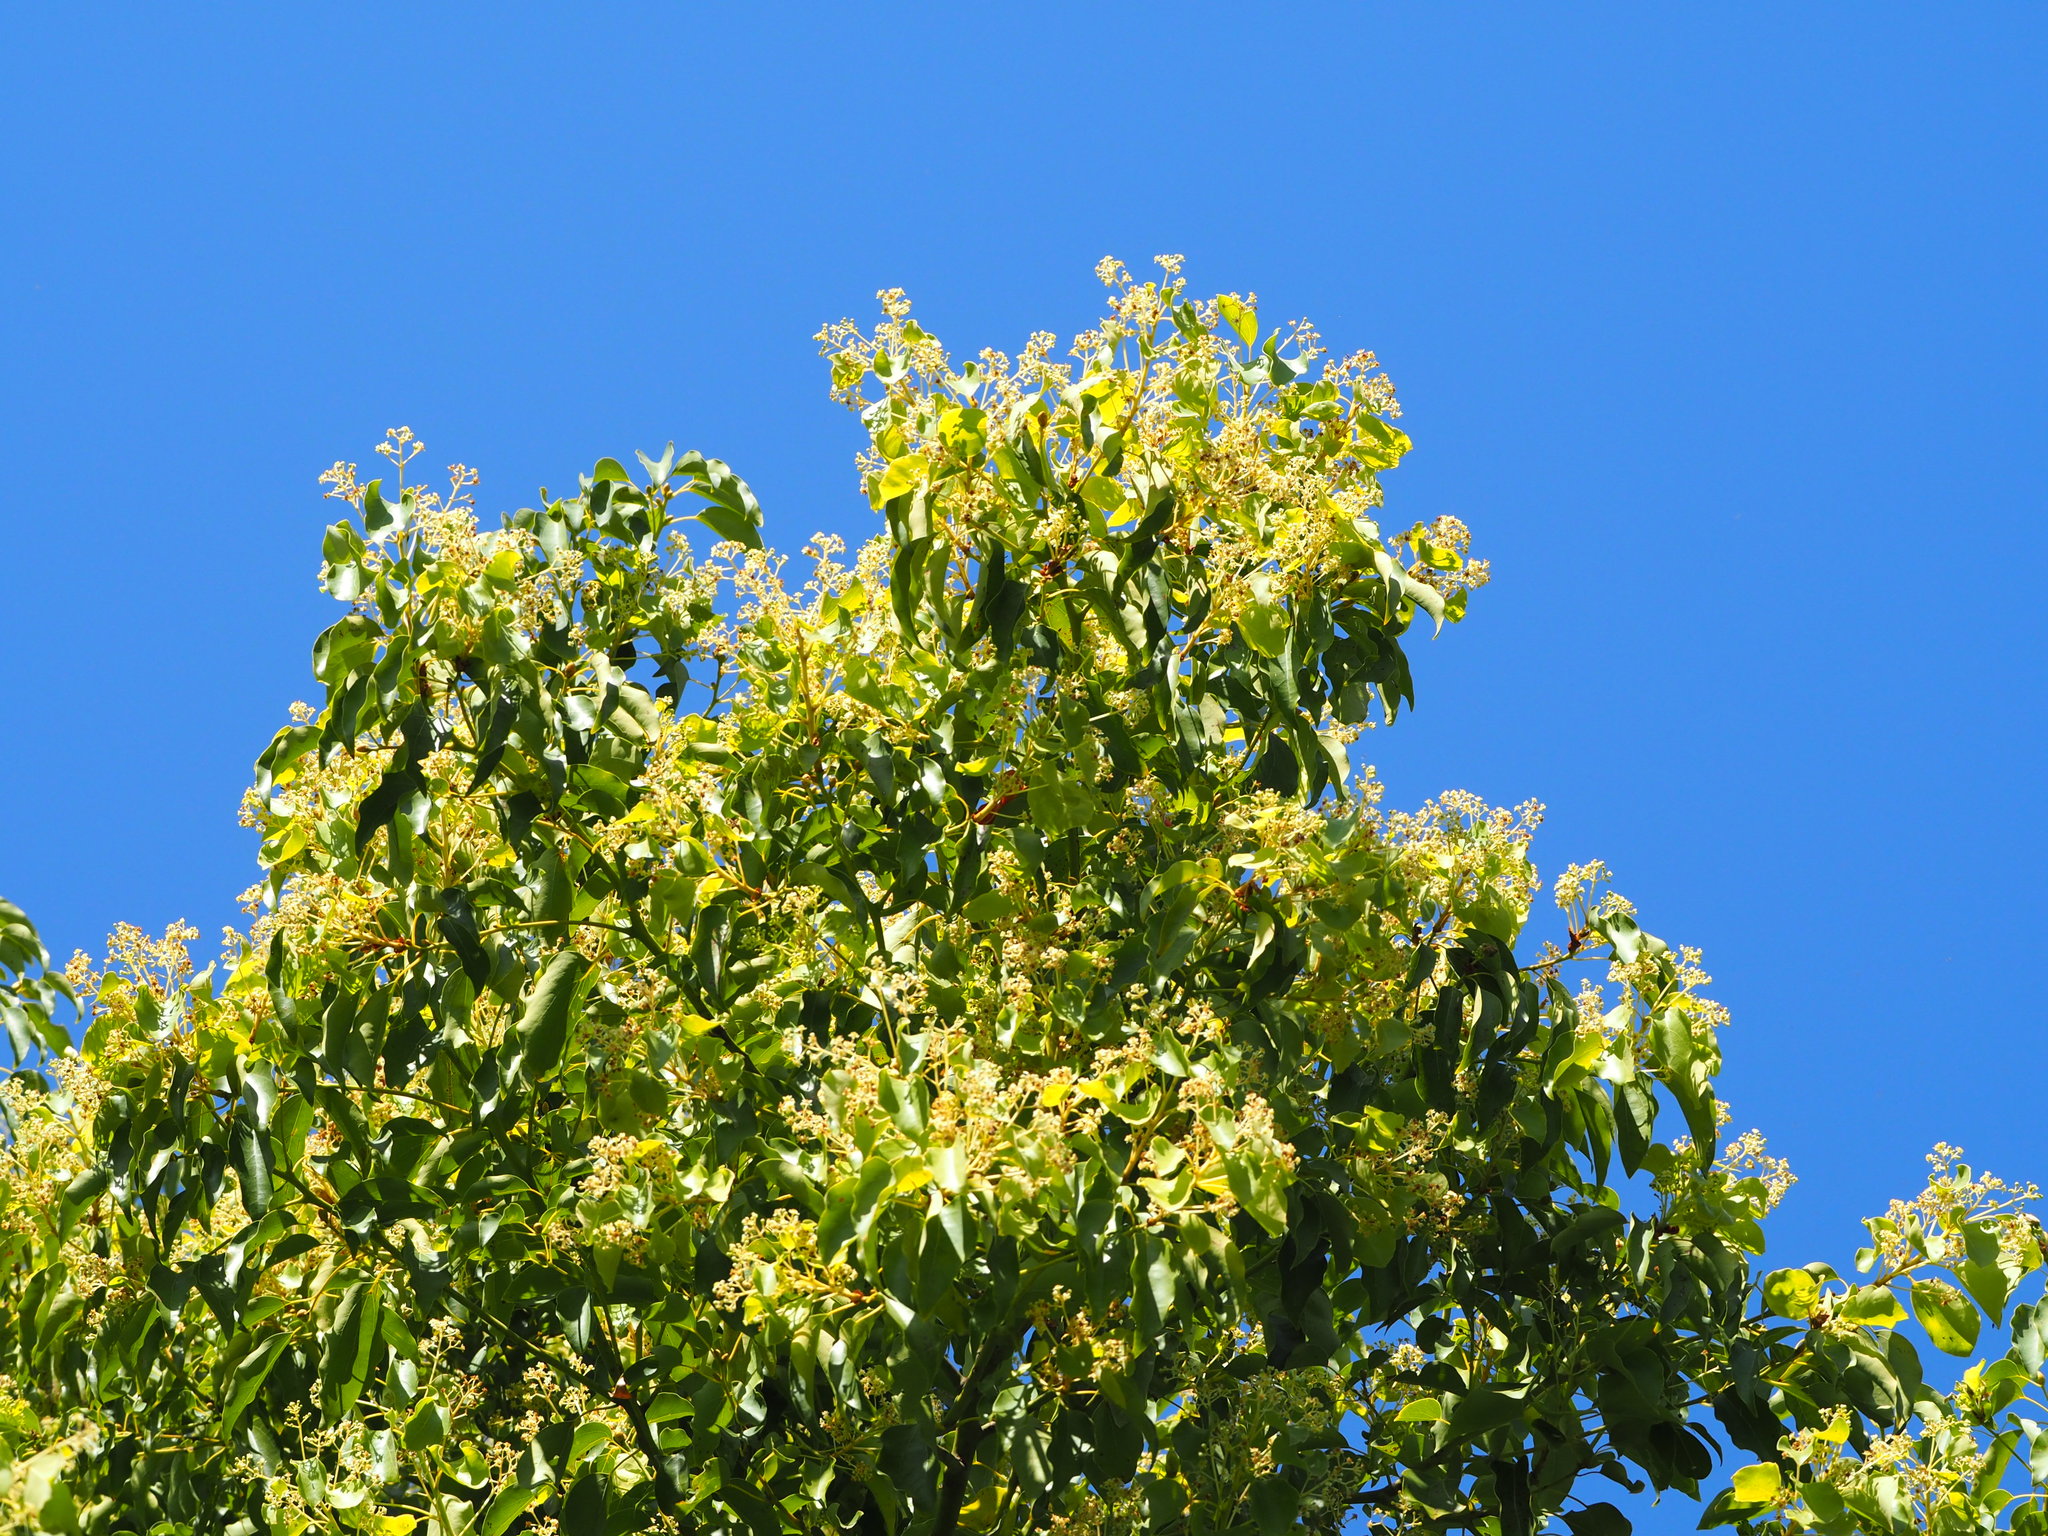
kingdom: Plantae
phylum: Tracheophyta
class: Magnoliopsida
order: Laurales
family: Lauraceae
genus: Cinnamomum
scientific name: Cinnamomum camphora
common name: Camphortree
